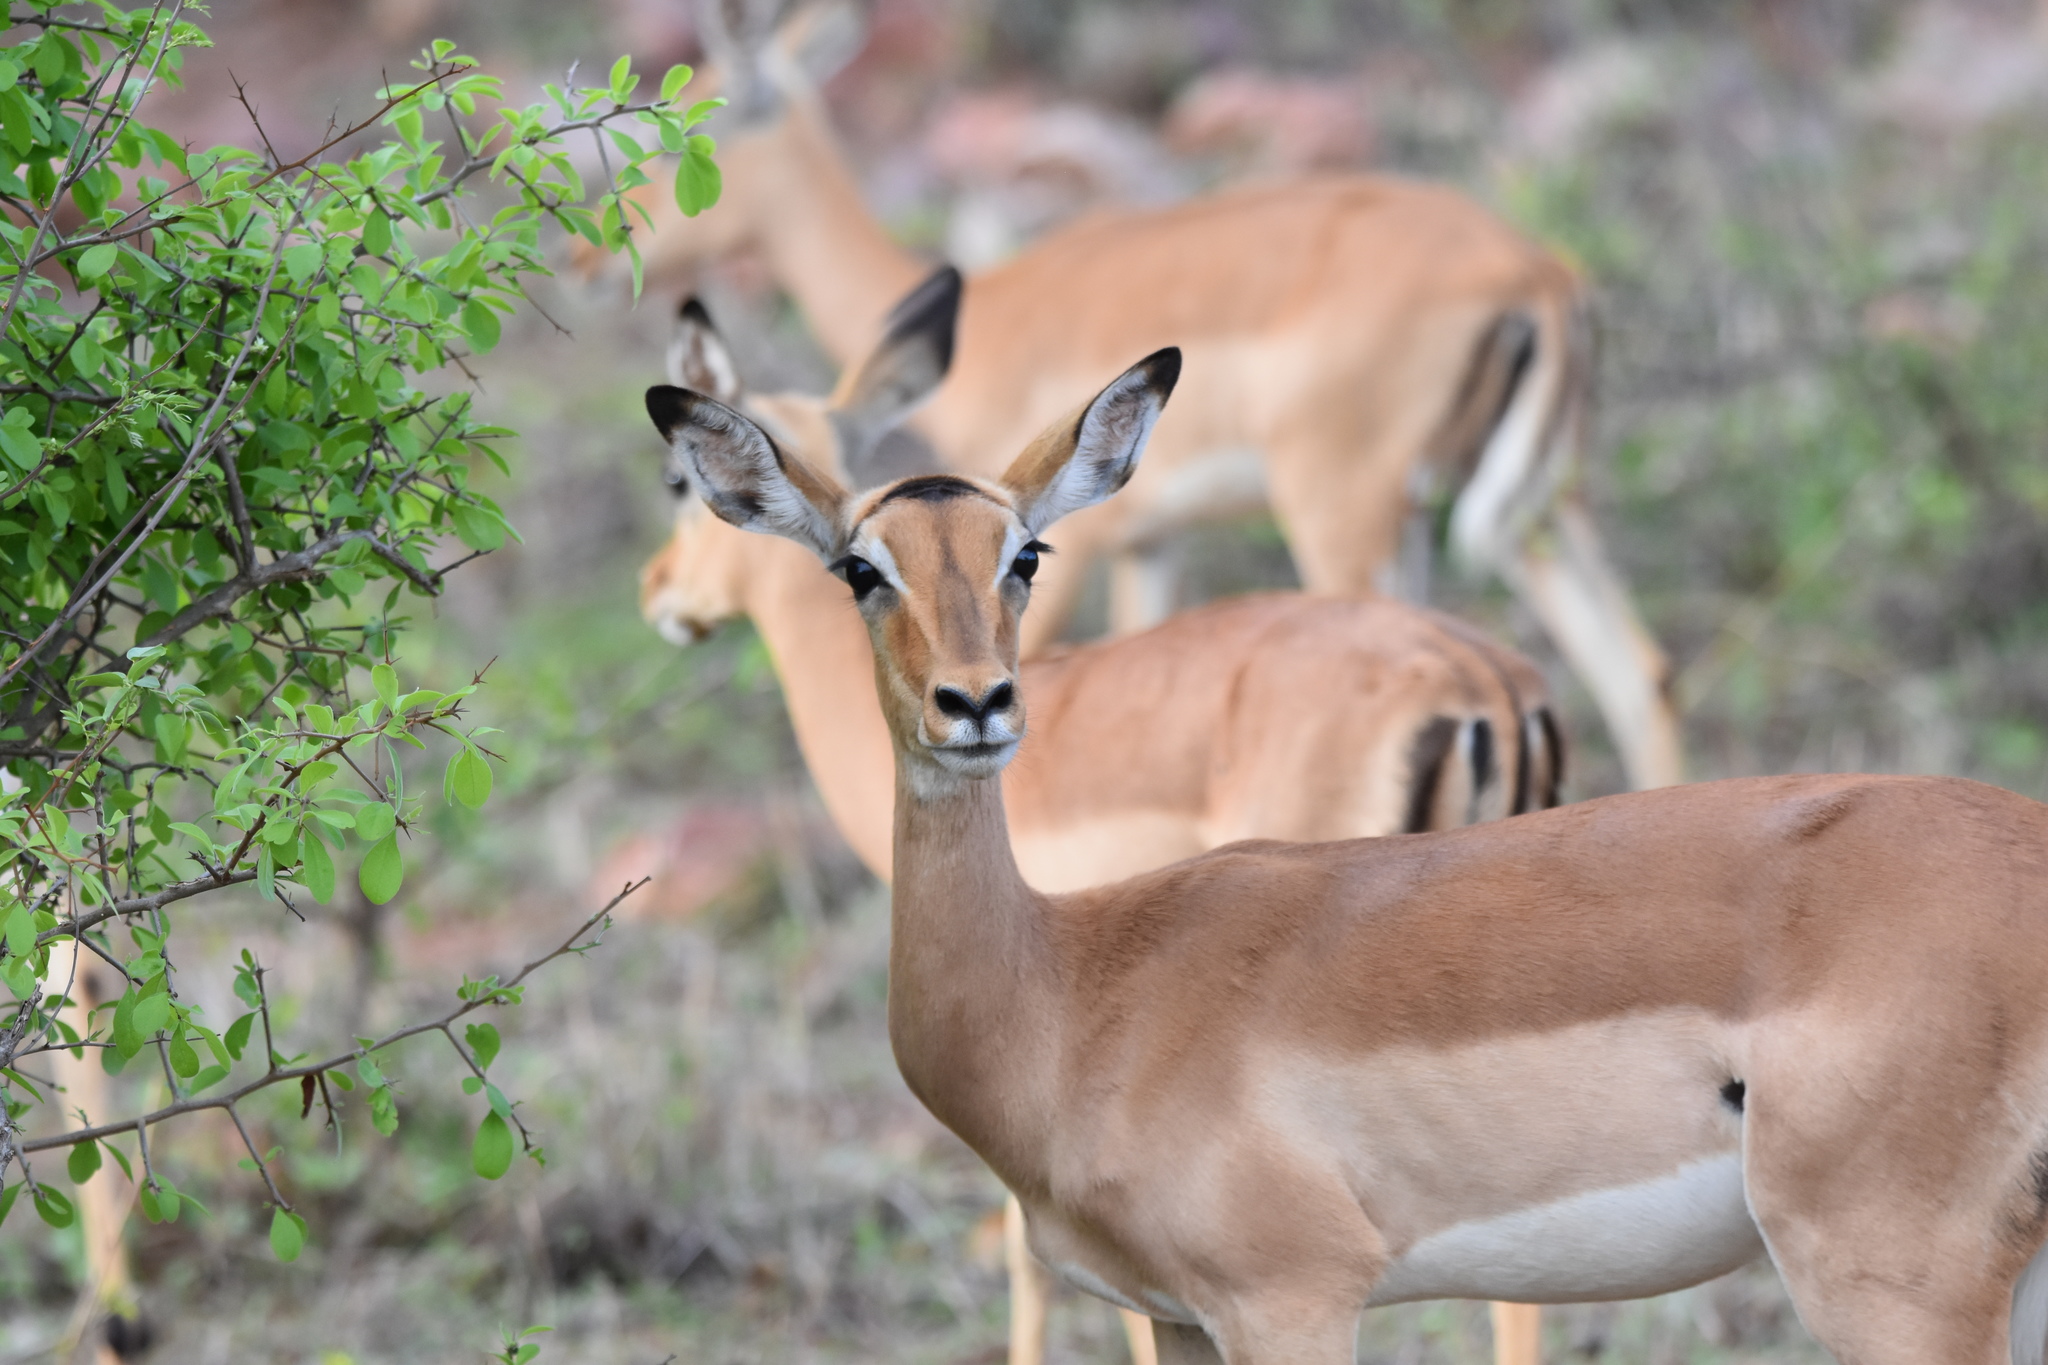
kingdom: Animalia
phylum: Chordata
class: Mammalia
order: Artiodactyla
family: Bovidae
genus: Aepyceros
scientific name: Aepyceros melampus
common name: Impala
